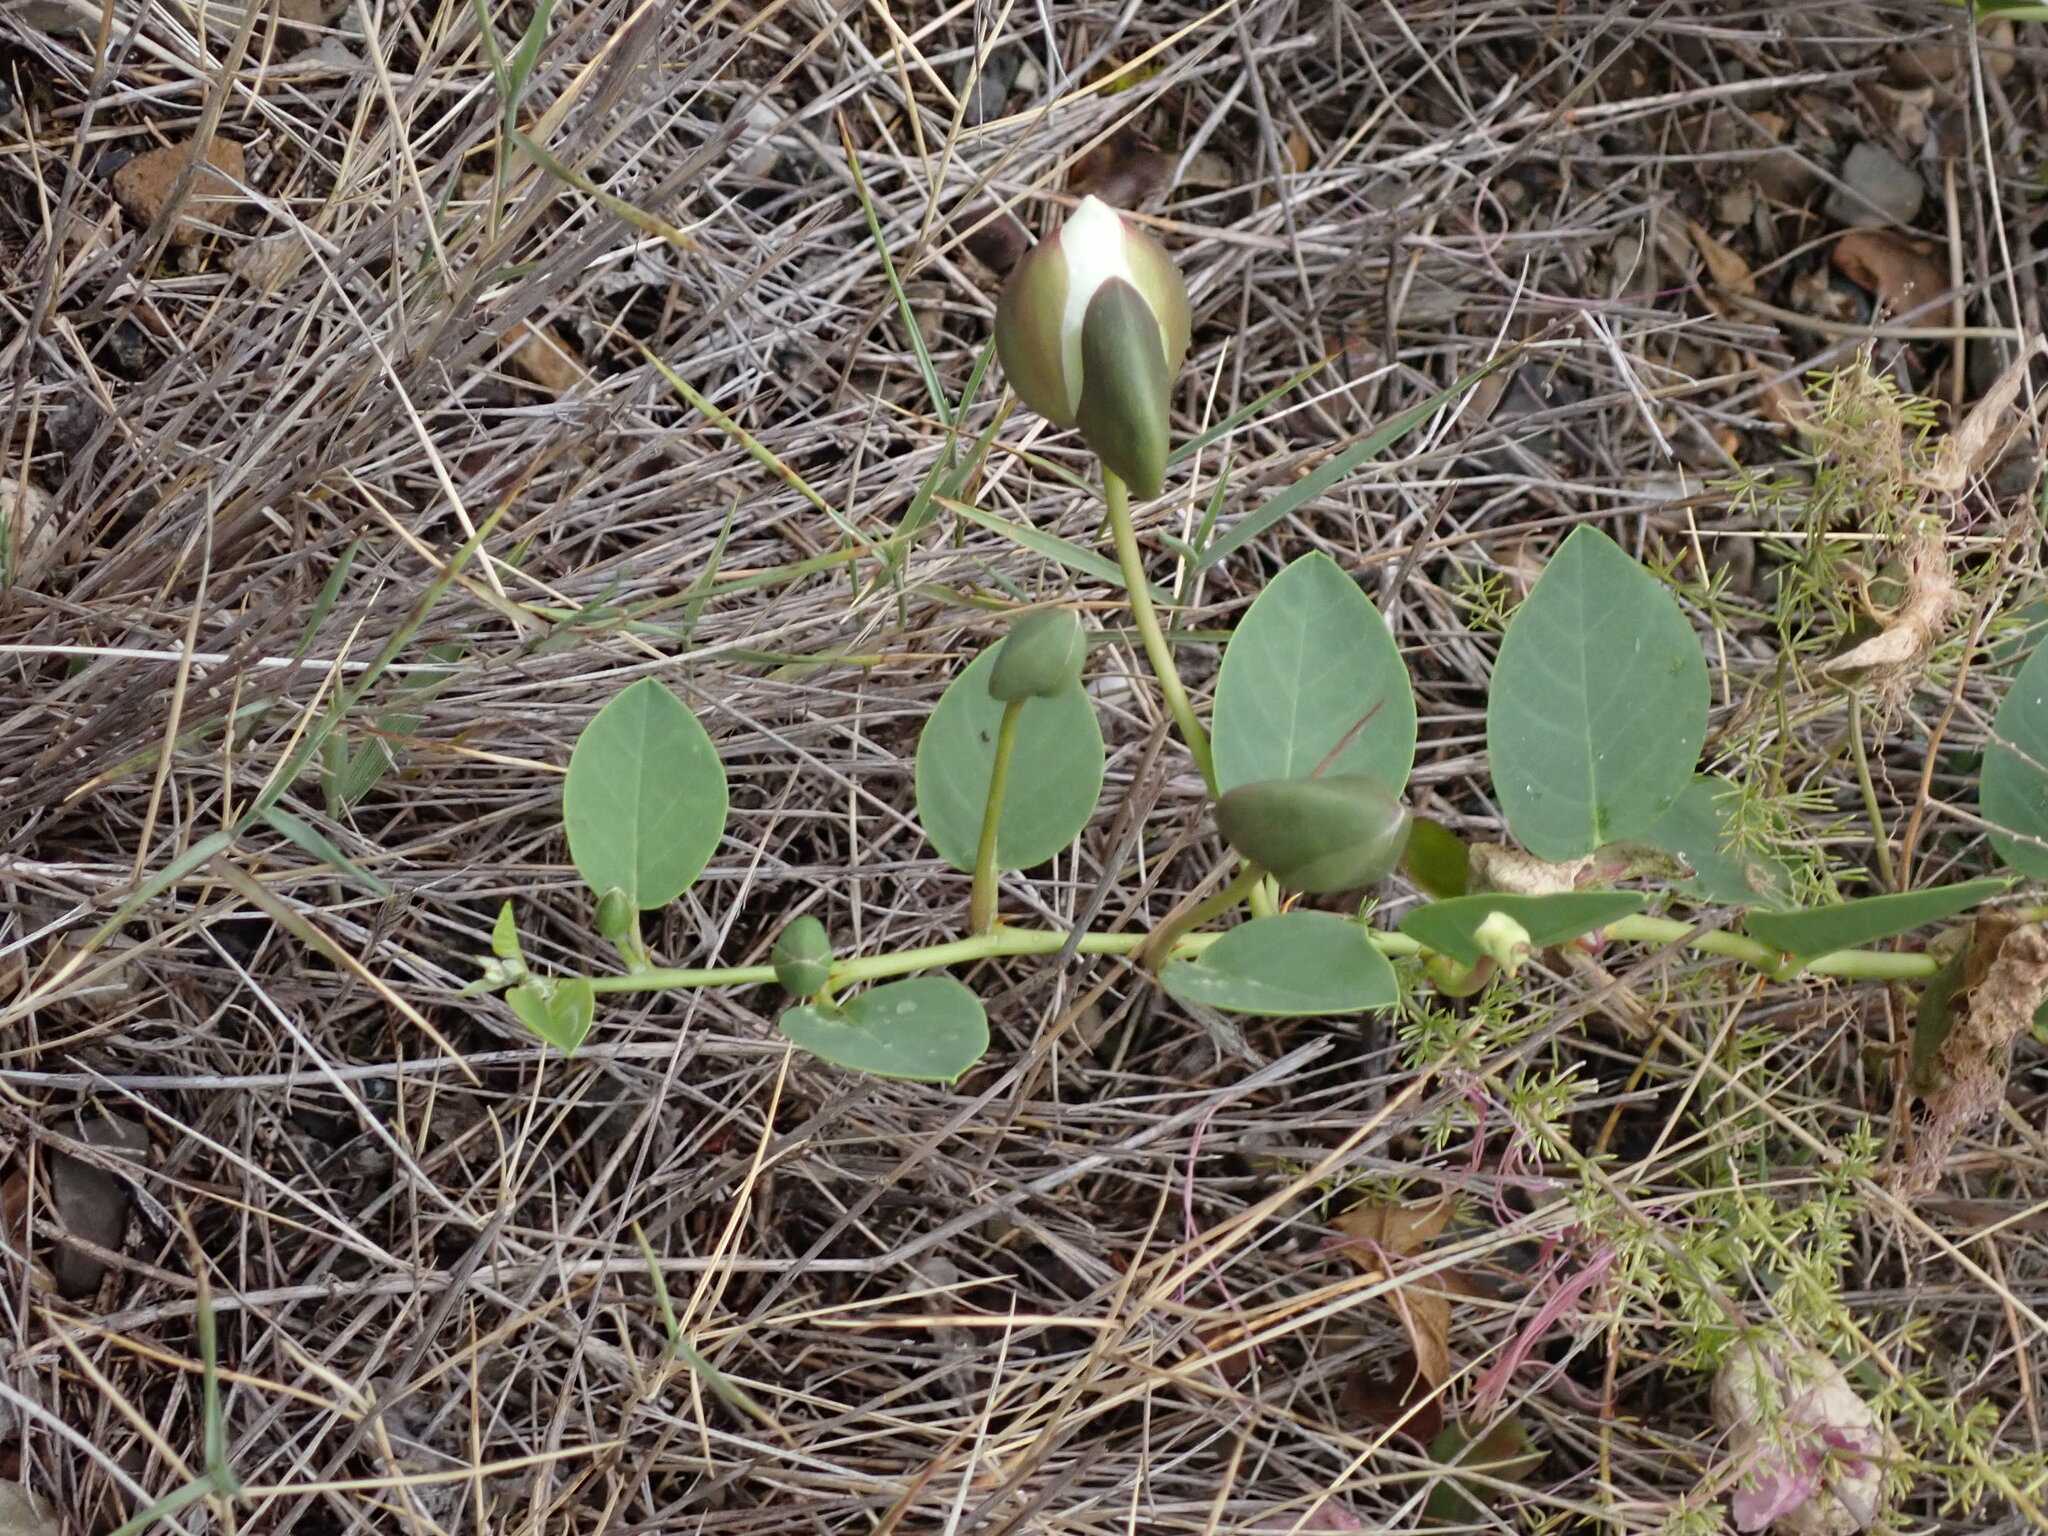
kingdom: Plantae
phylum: Tracheophyta
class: Magnoliopsida
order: Brassicales
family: Capparaceae
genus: Capparis
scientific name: Capparis spinosa
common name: Caper
